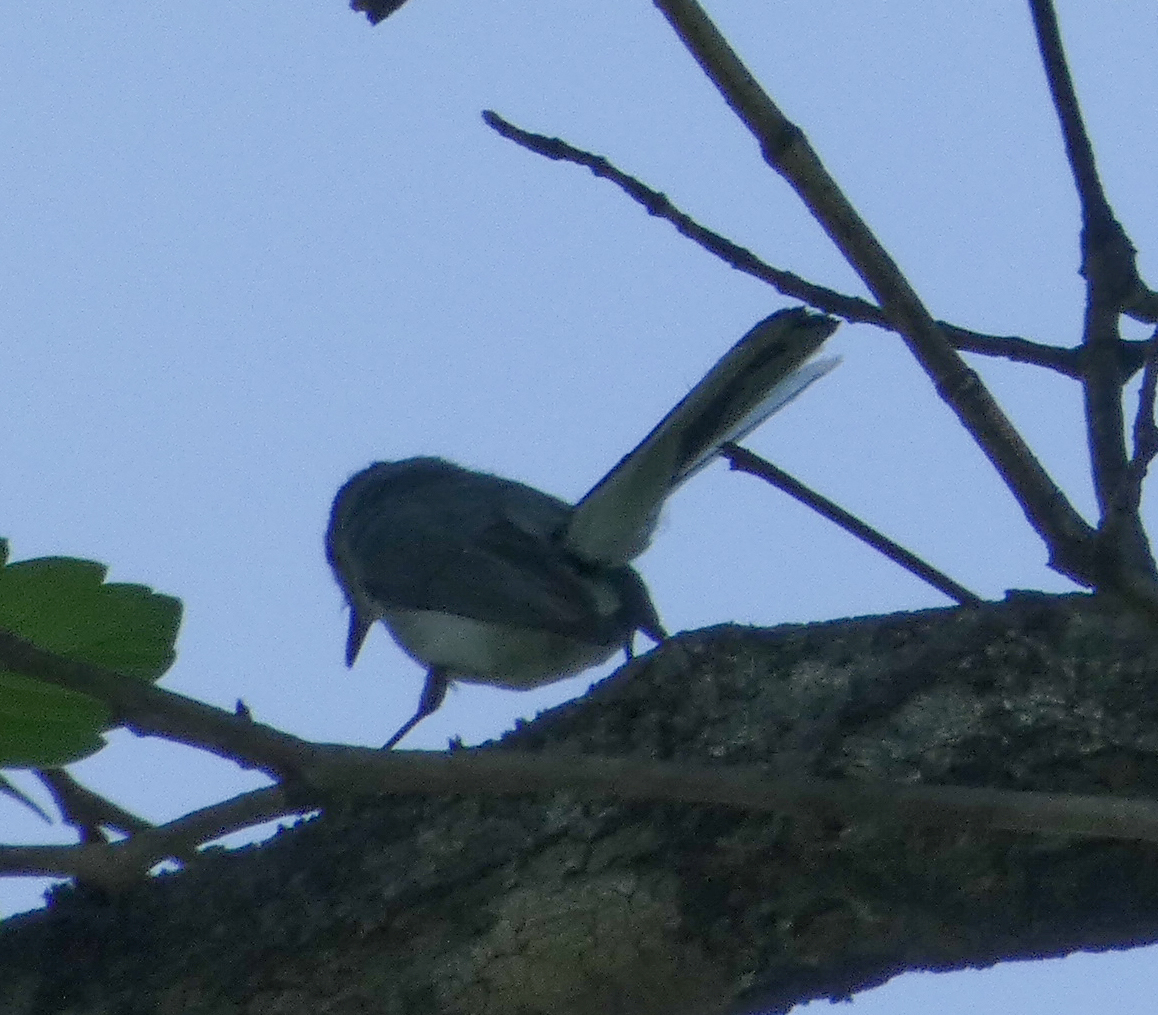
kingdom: Animalia
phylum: Chordata
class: Aves
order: Passeriformes
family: Polioptilidae
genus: Polioptila
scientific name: Polioptila caerulea
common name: Blue-gray gnatcatcher
